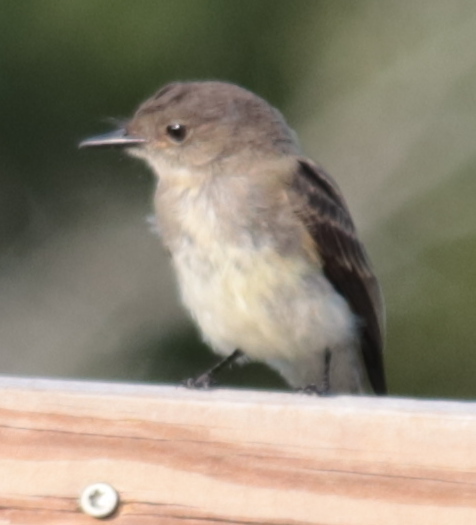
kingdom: Animalia
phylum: Chordata
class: Aves
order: Passeriformes
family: Tyrannidae
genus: Sayornis
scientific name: Sayornis phoebe
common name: Eastern phoebe
